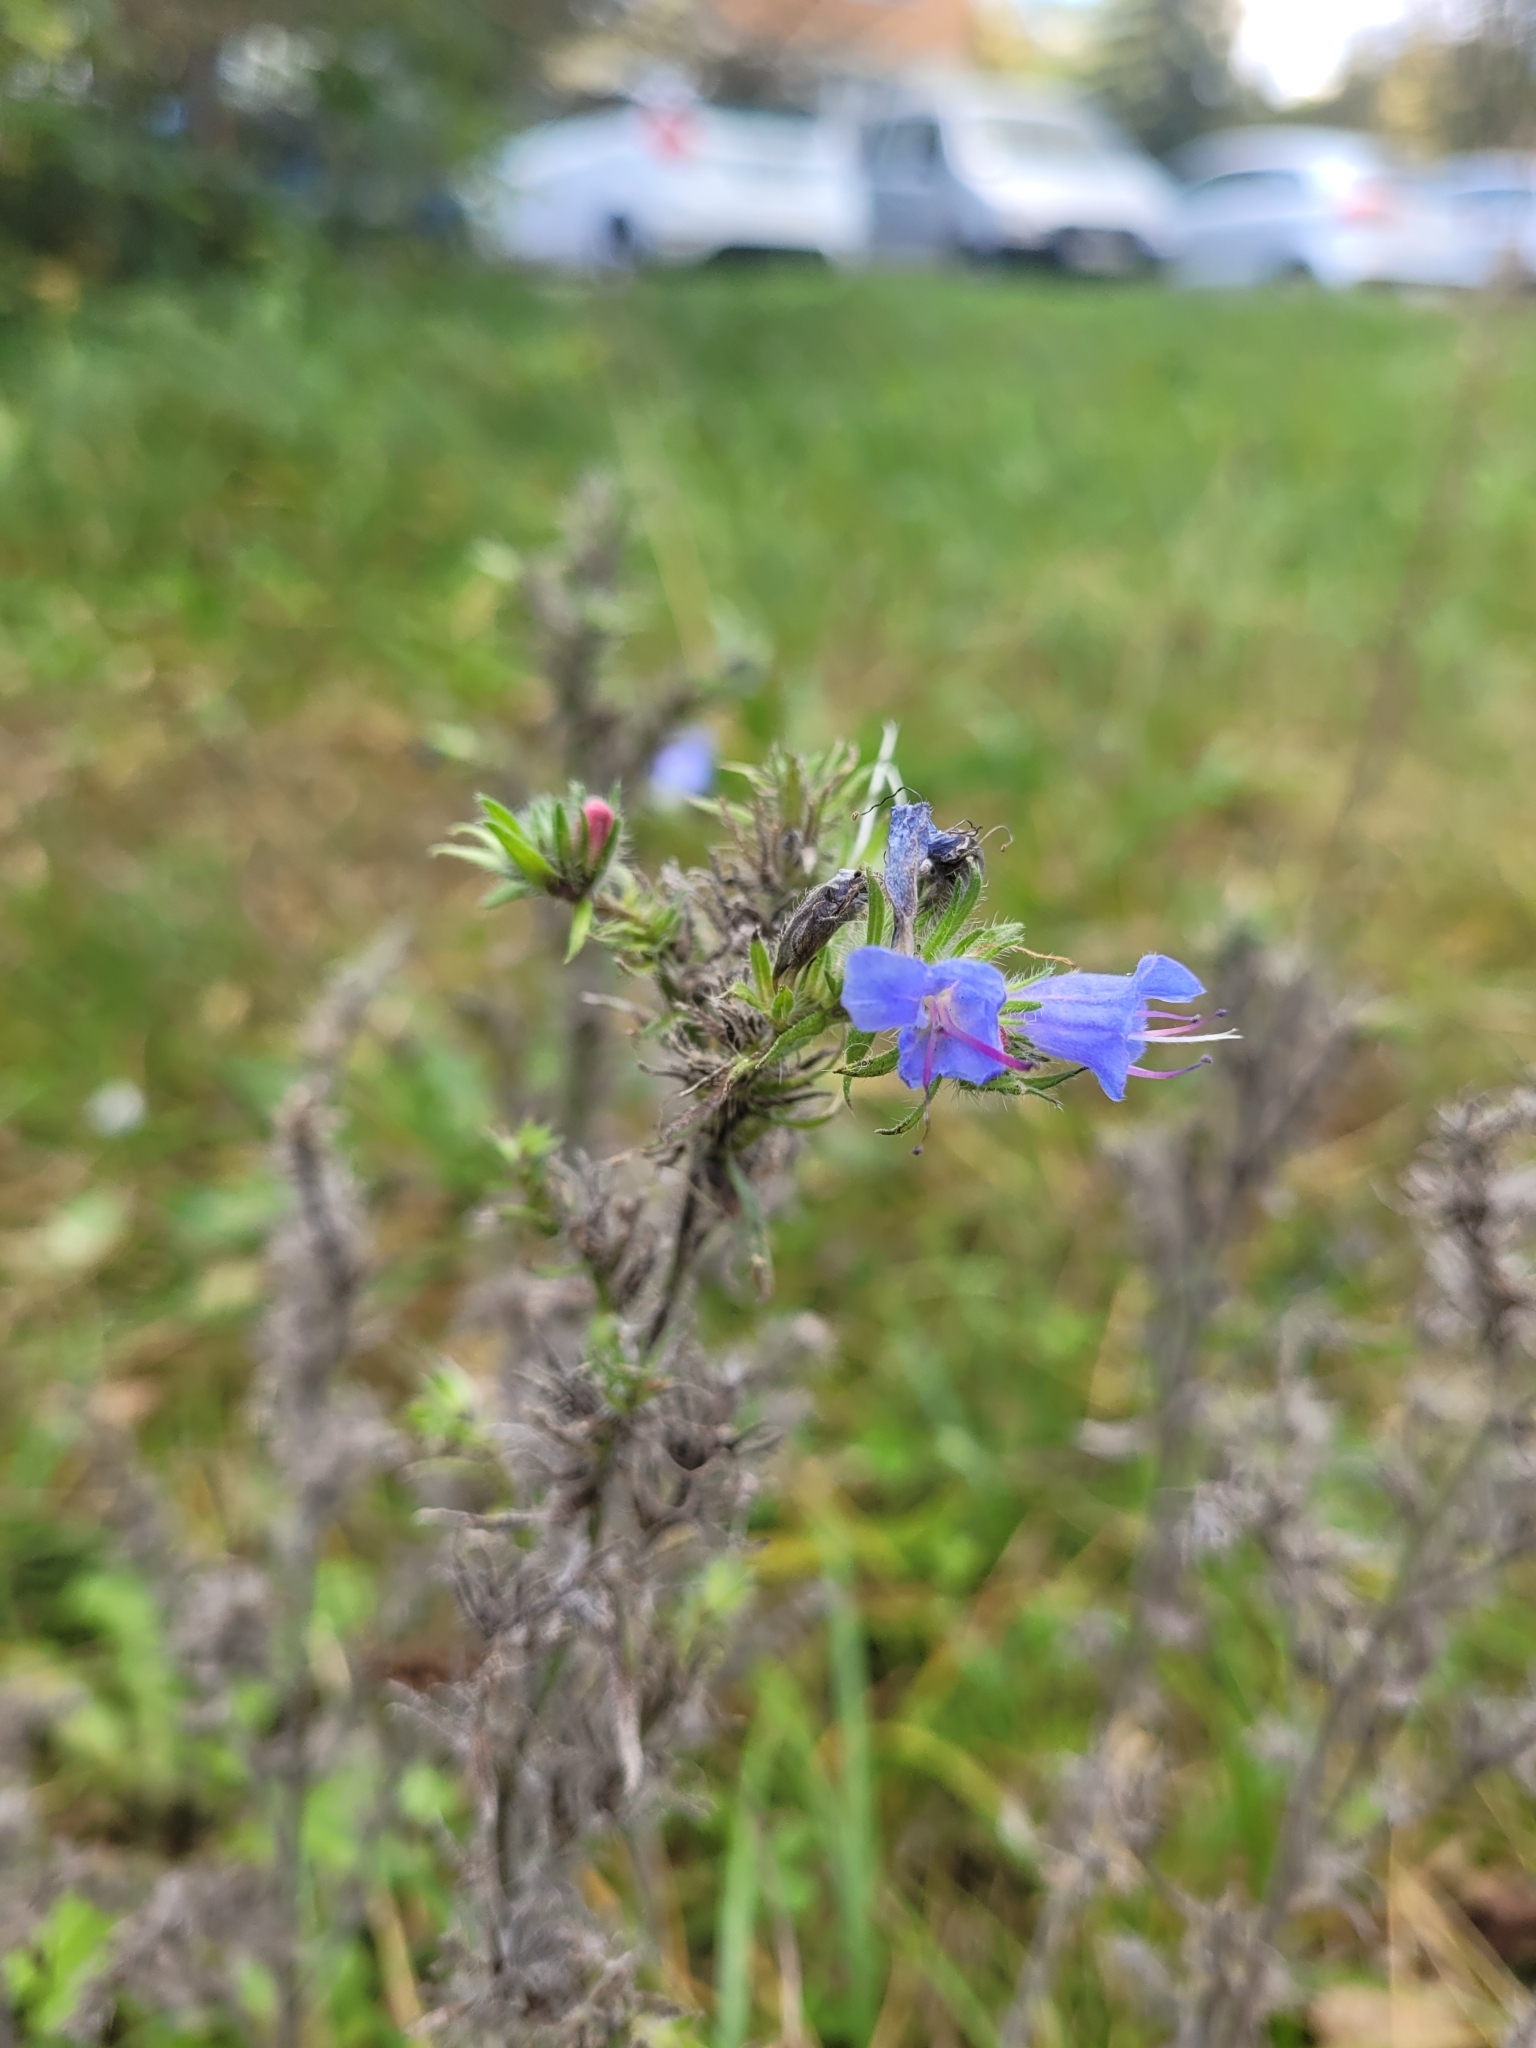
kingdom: Plantae
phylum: Tracheophyta
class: Magnoliopsida
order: Boraginales
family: Boraginaceae
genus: Echium
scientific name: Echium vulgare
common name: Common viper's bugloss
